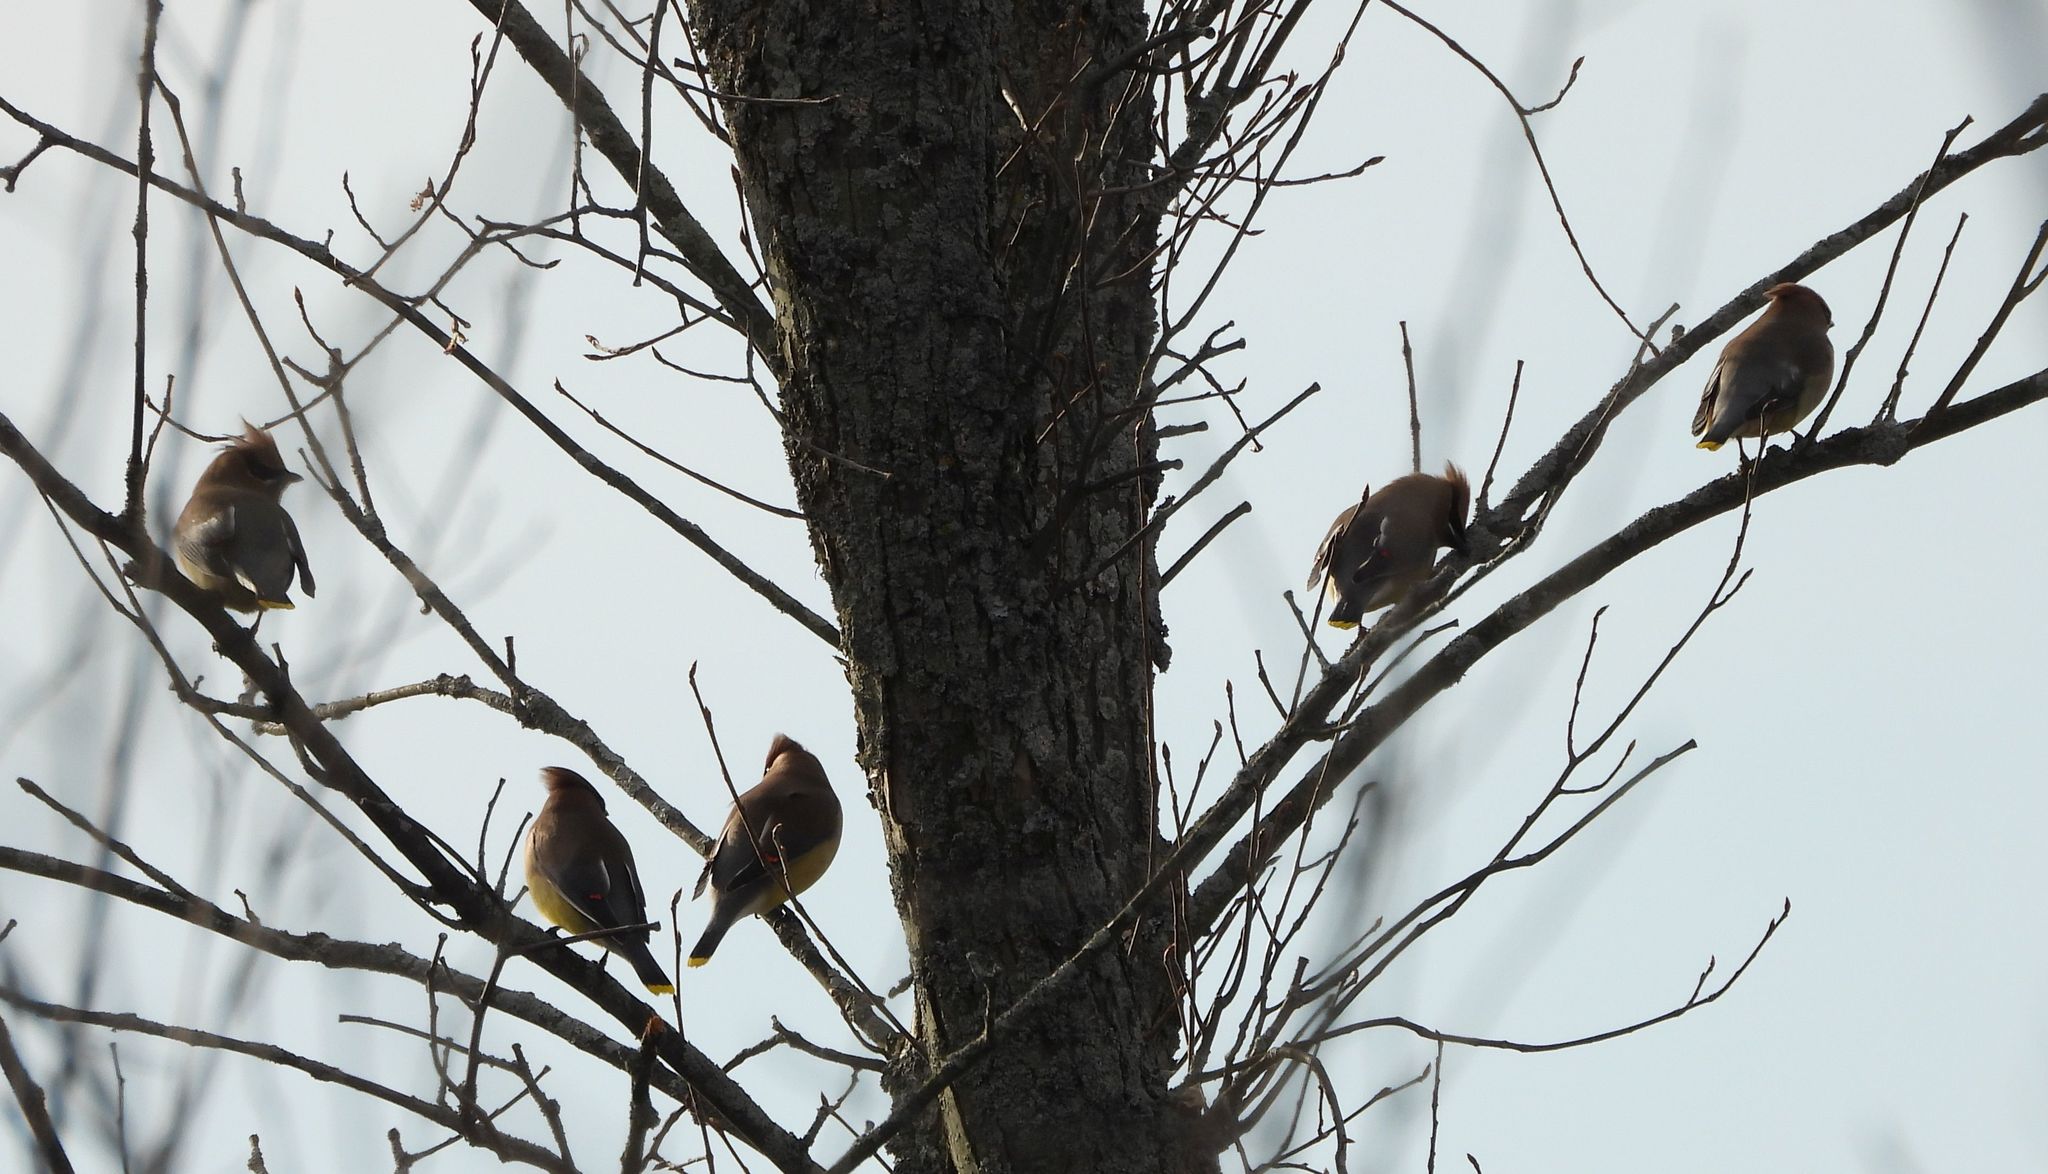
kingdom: Animalia
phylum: Chordata
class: Aves
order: Passeriformes
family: Bombycillidae
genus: Bombycilla
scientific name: Bombycilla cedrorum
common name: Cedar waxwing
